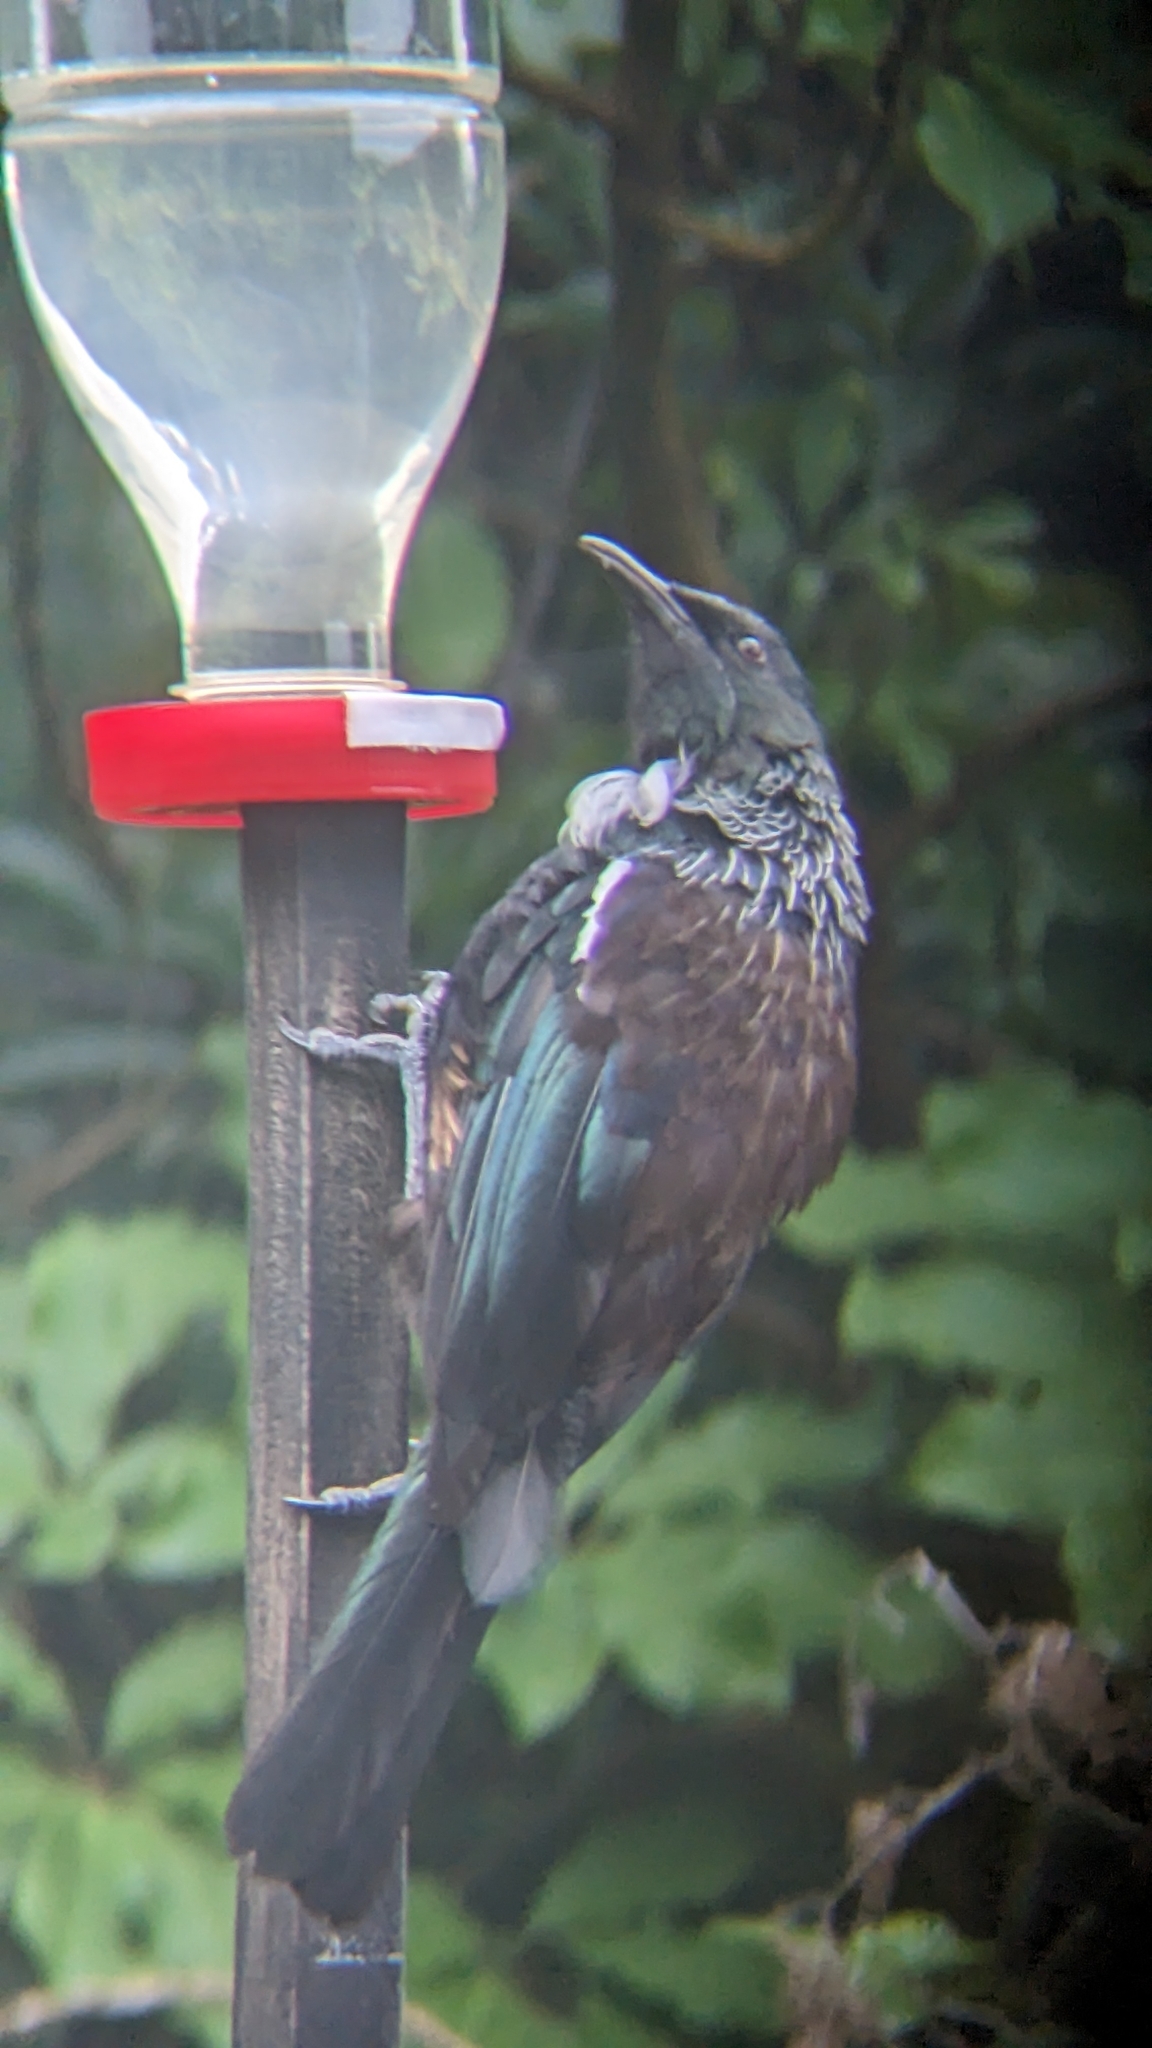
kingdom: Animalia
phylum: Chordata
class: Aves
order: Passeriformes
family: Meliphagidae
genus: Prosthemadera
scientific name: Prosthemadera novaeseelandiae
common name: Tui
